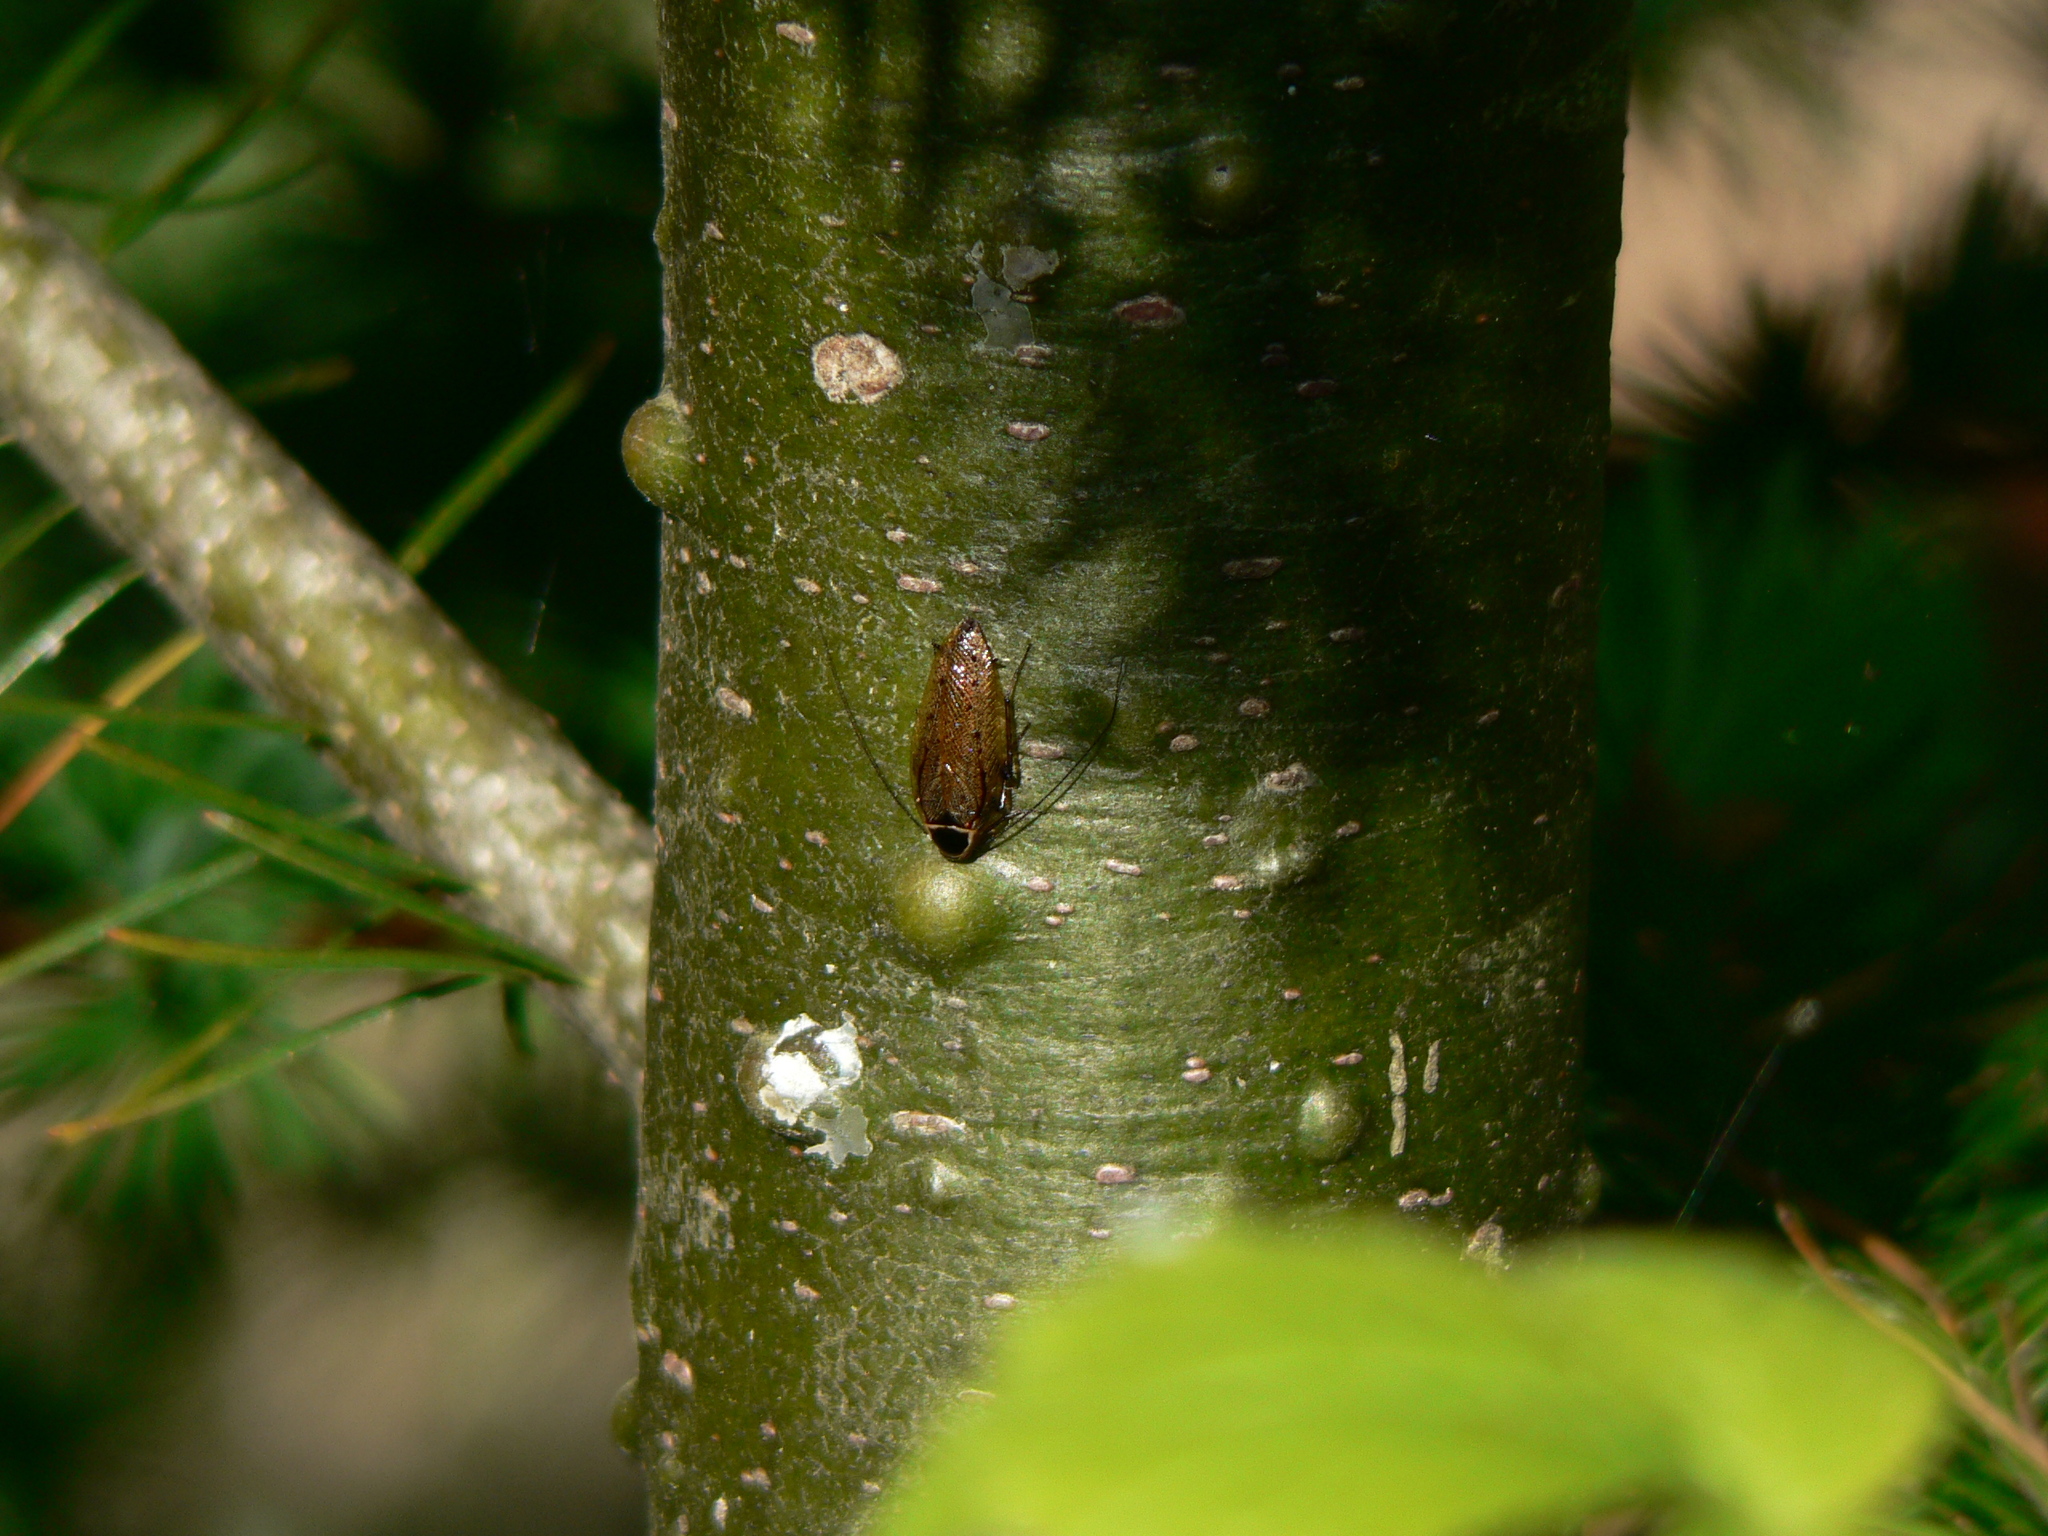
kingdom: Animalia
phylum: Arthropoda
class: Insecta
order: Blattodea
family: Ectobiidae
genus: Ectobius
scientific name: Ectobius sylvestris
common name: Forest cockroach
